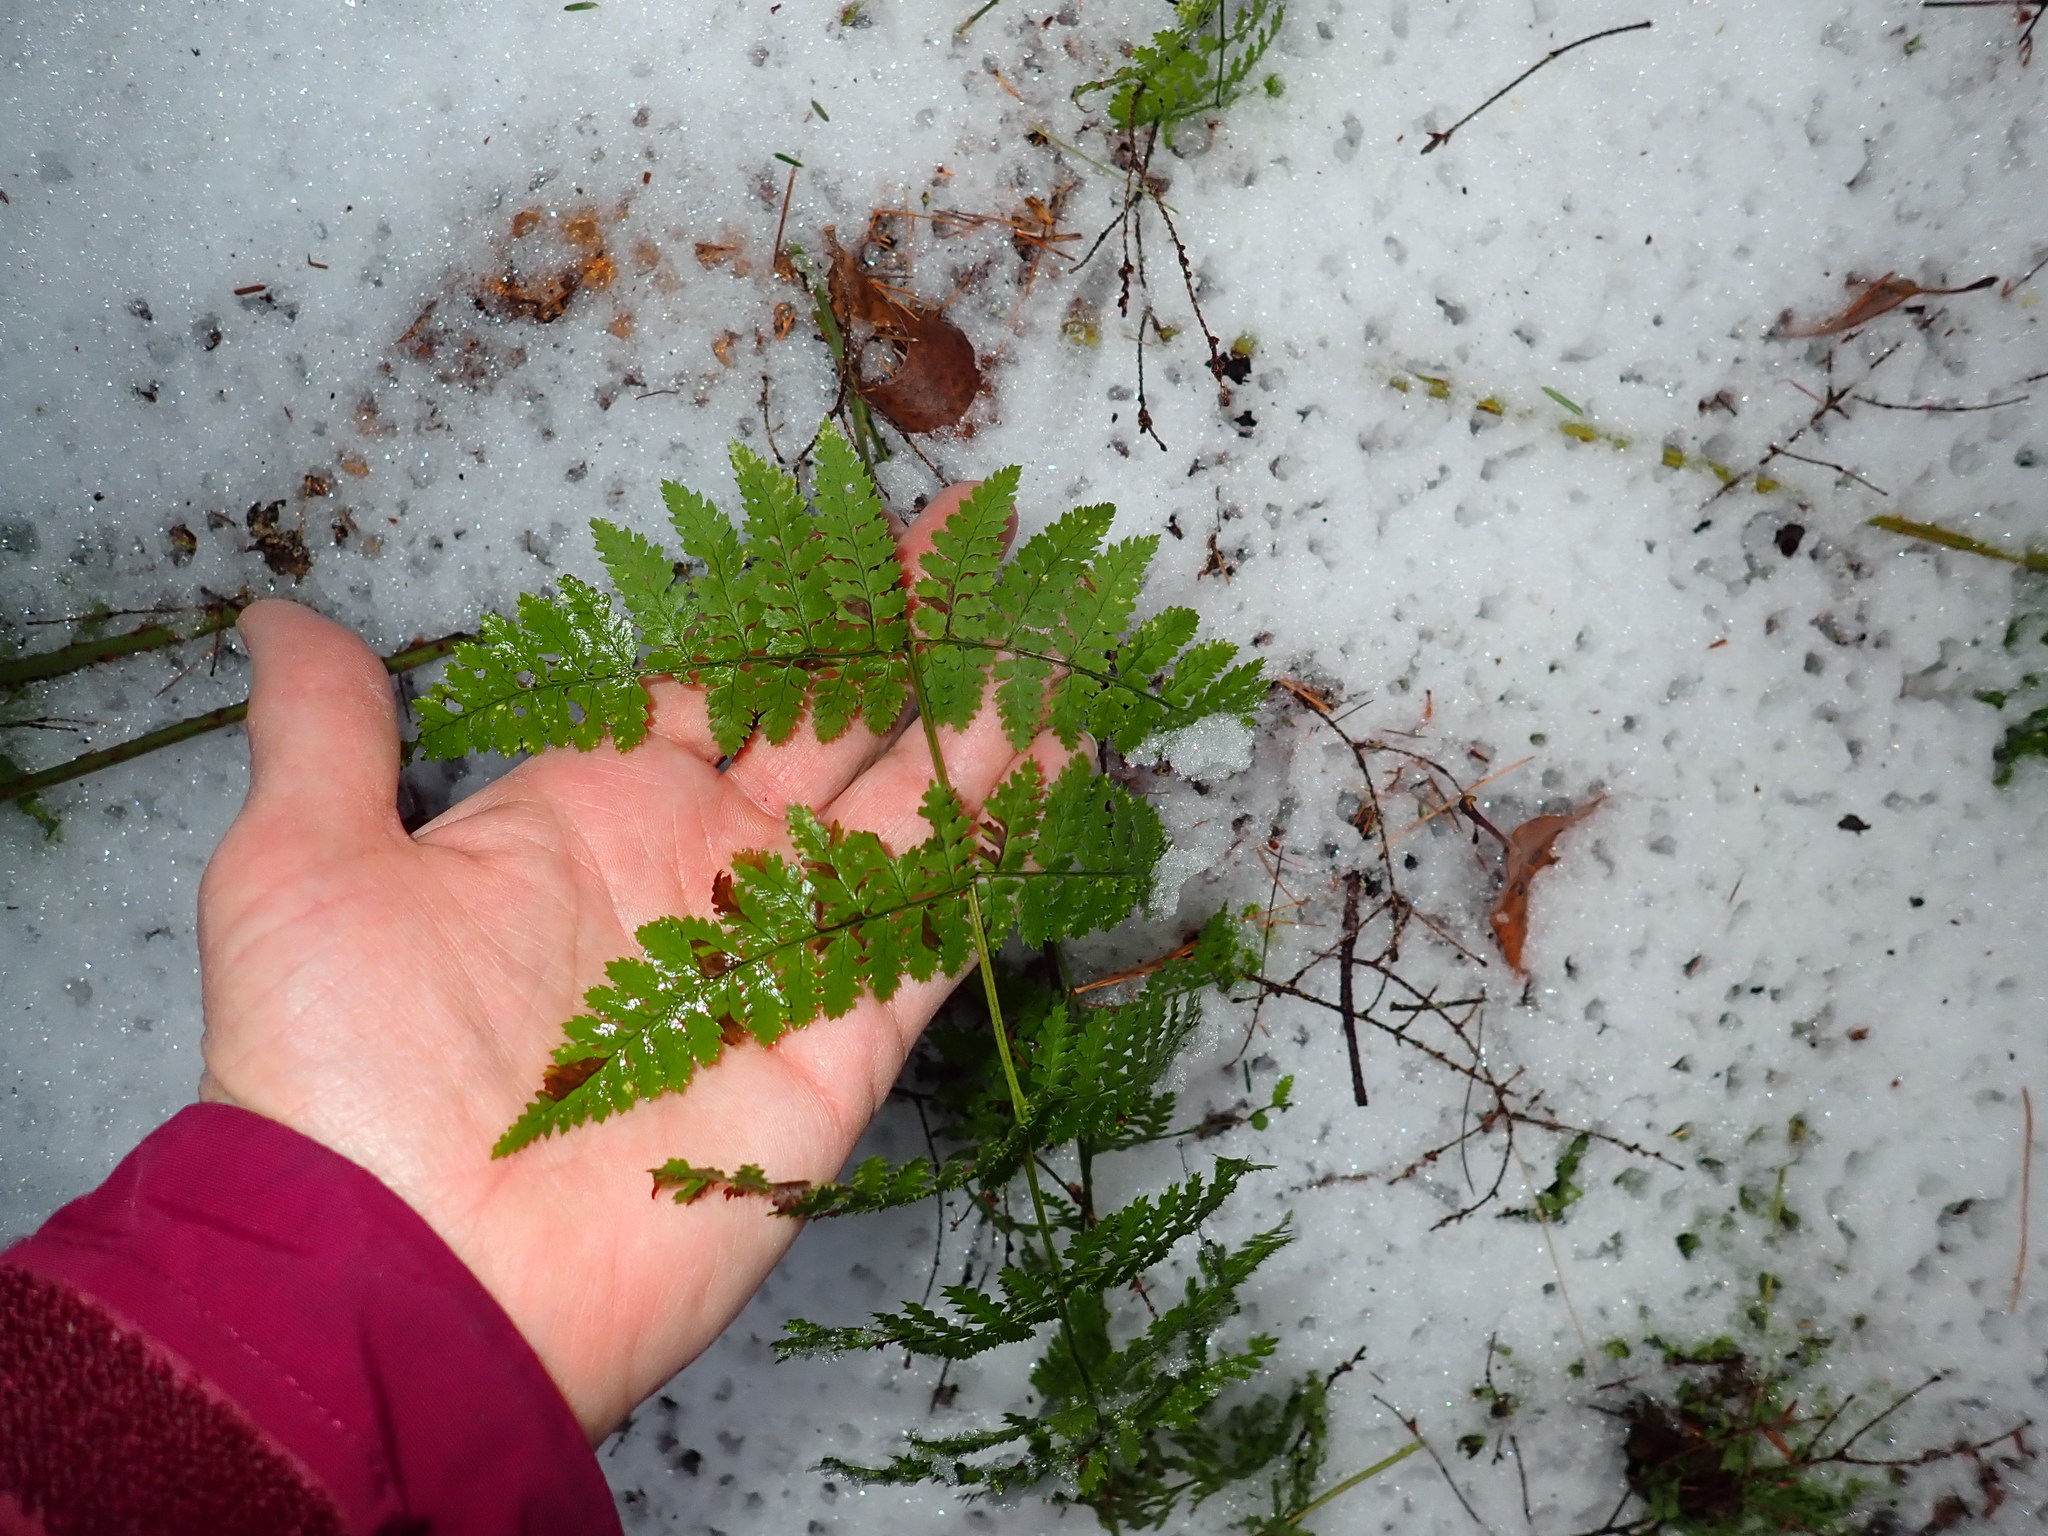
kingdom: Plantae
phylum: Tracheophyta
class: Polypodiopsida
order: Polypodiales
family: Dryopteridaceae
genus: Dryopteris
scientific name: Dryopteris intermedia
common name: Evergreen wood fern
